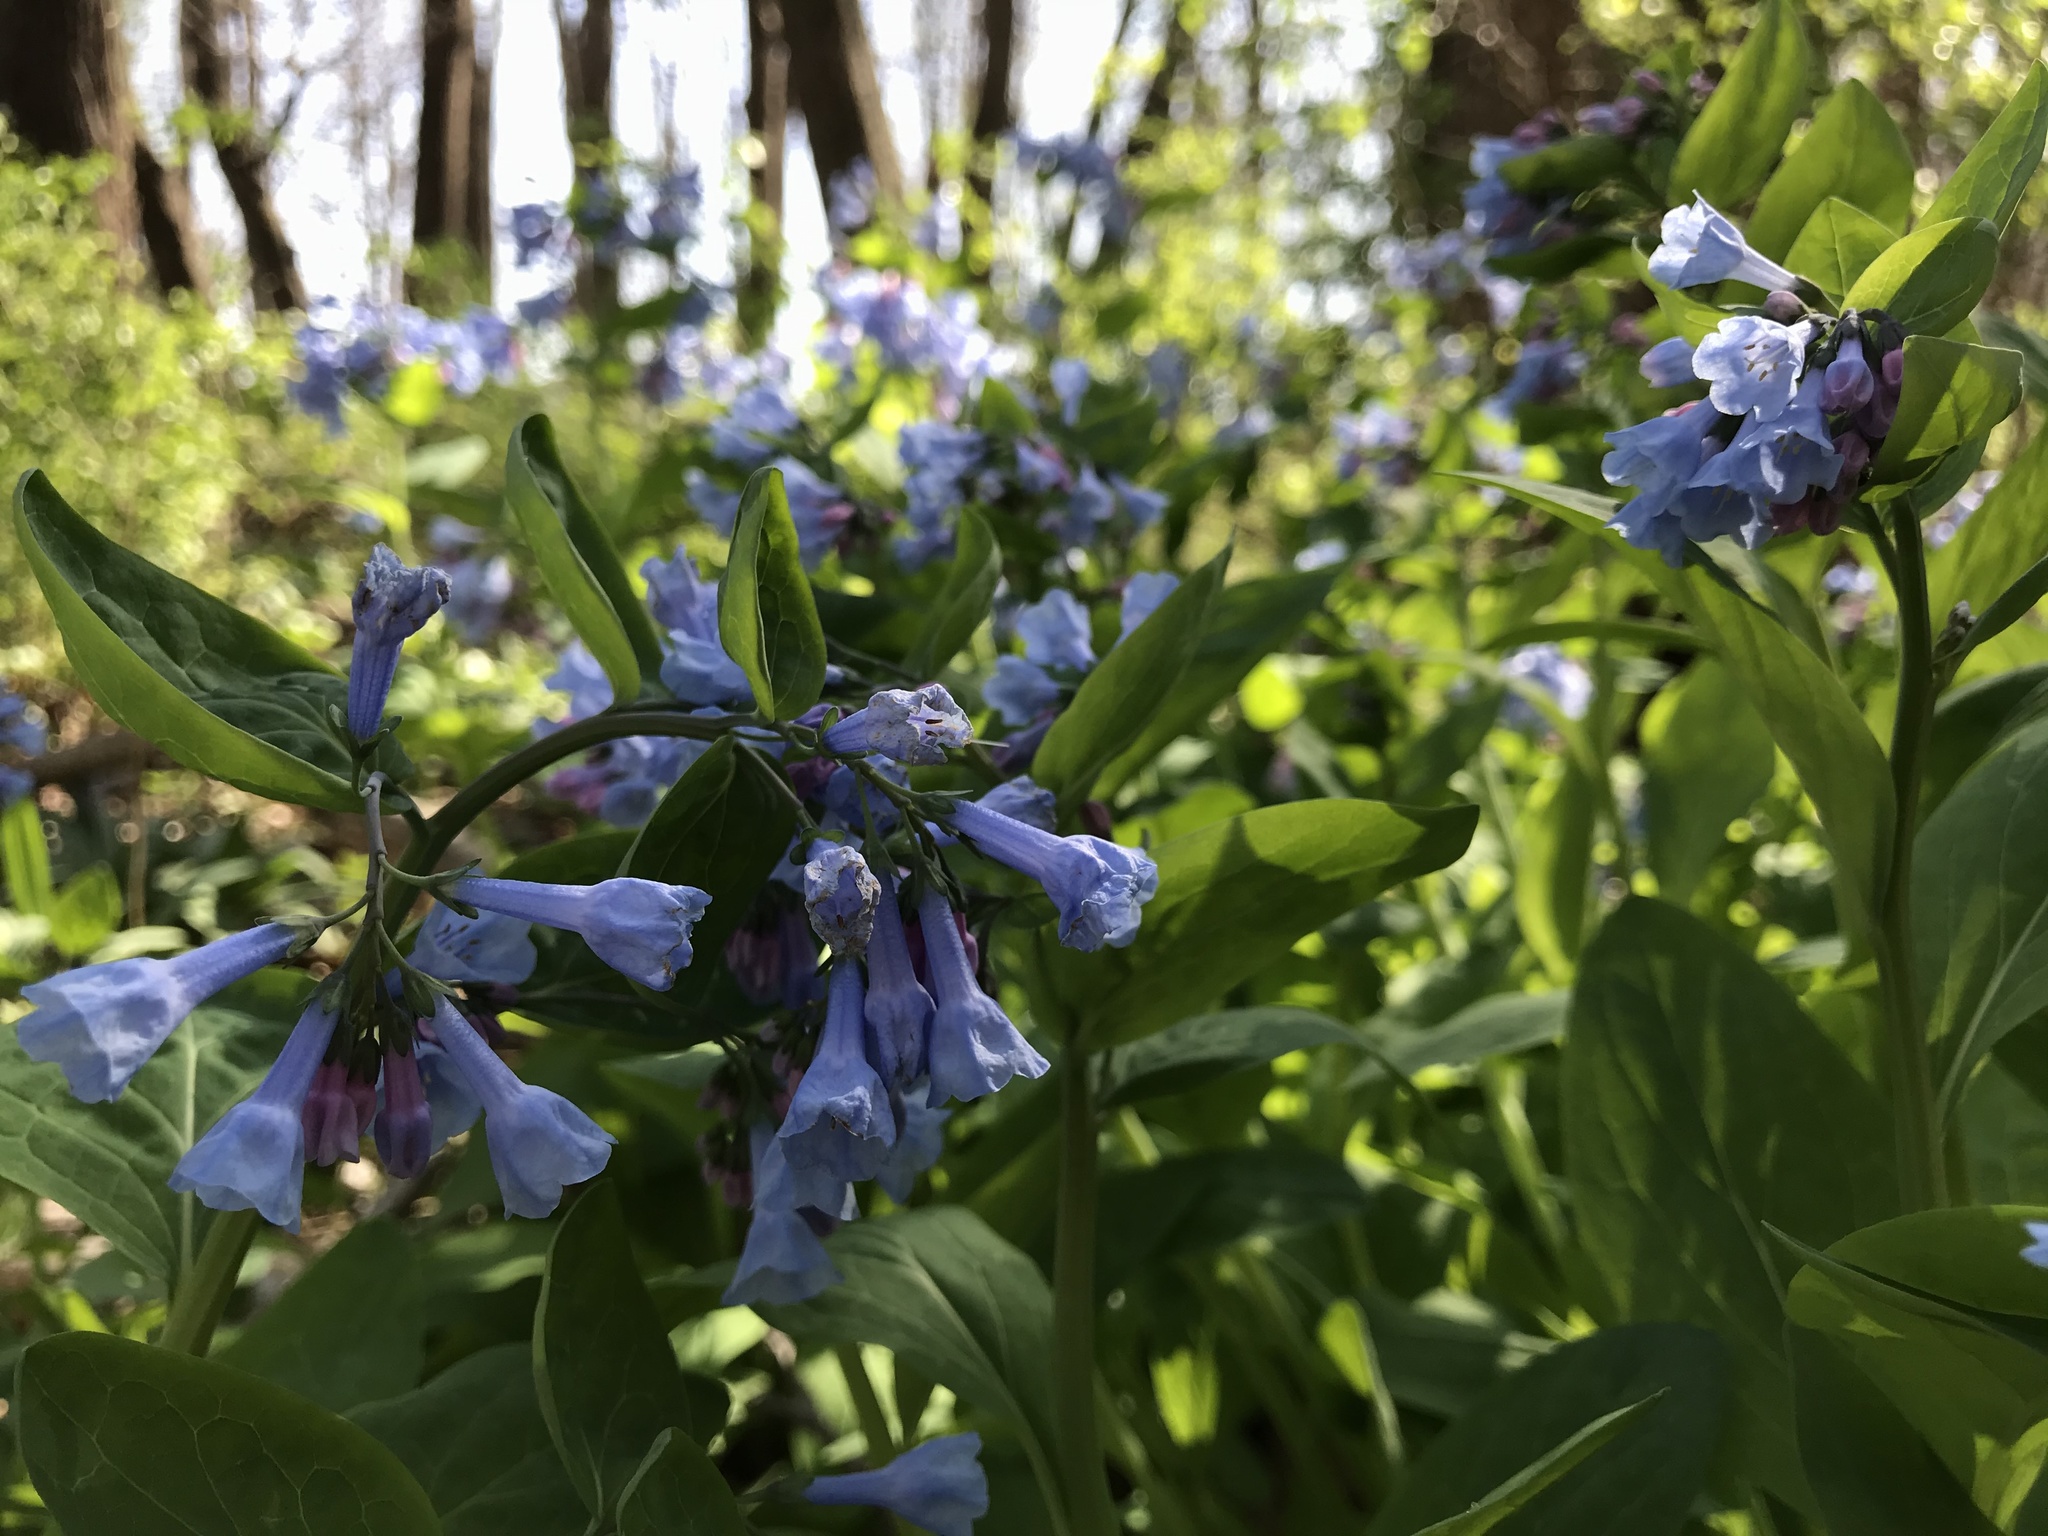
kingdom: Plantae
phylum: Tracheophyta
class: Magnoliopsida
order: Boraginales
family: Boraginaceae
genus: Mertensia
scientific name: Mertensia virginica
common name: Virginia bluebells
